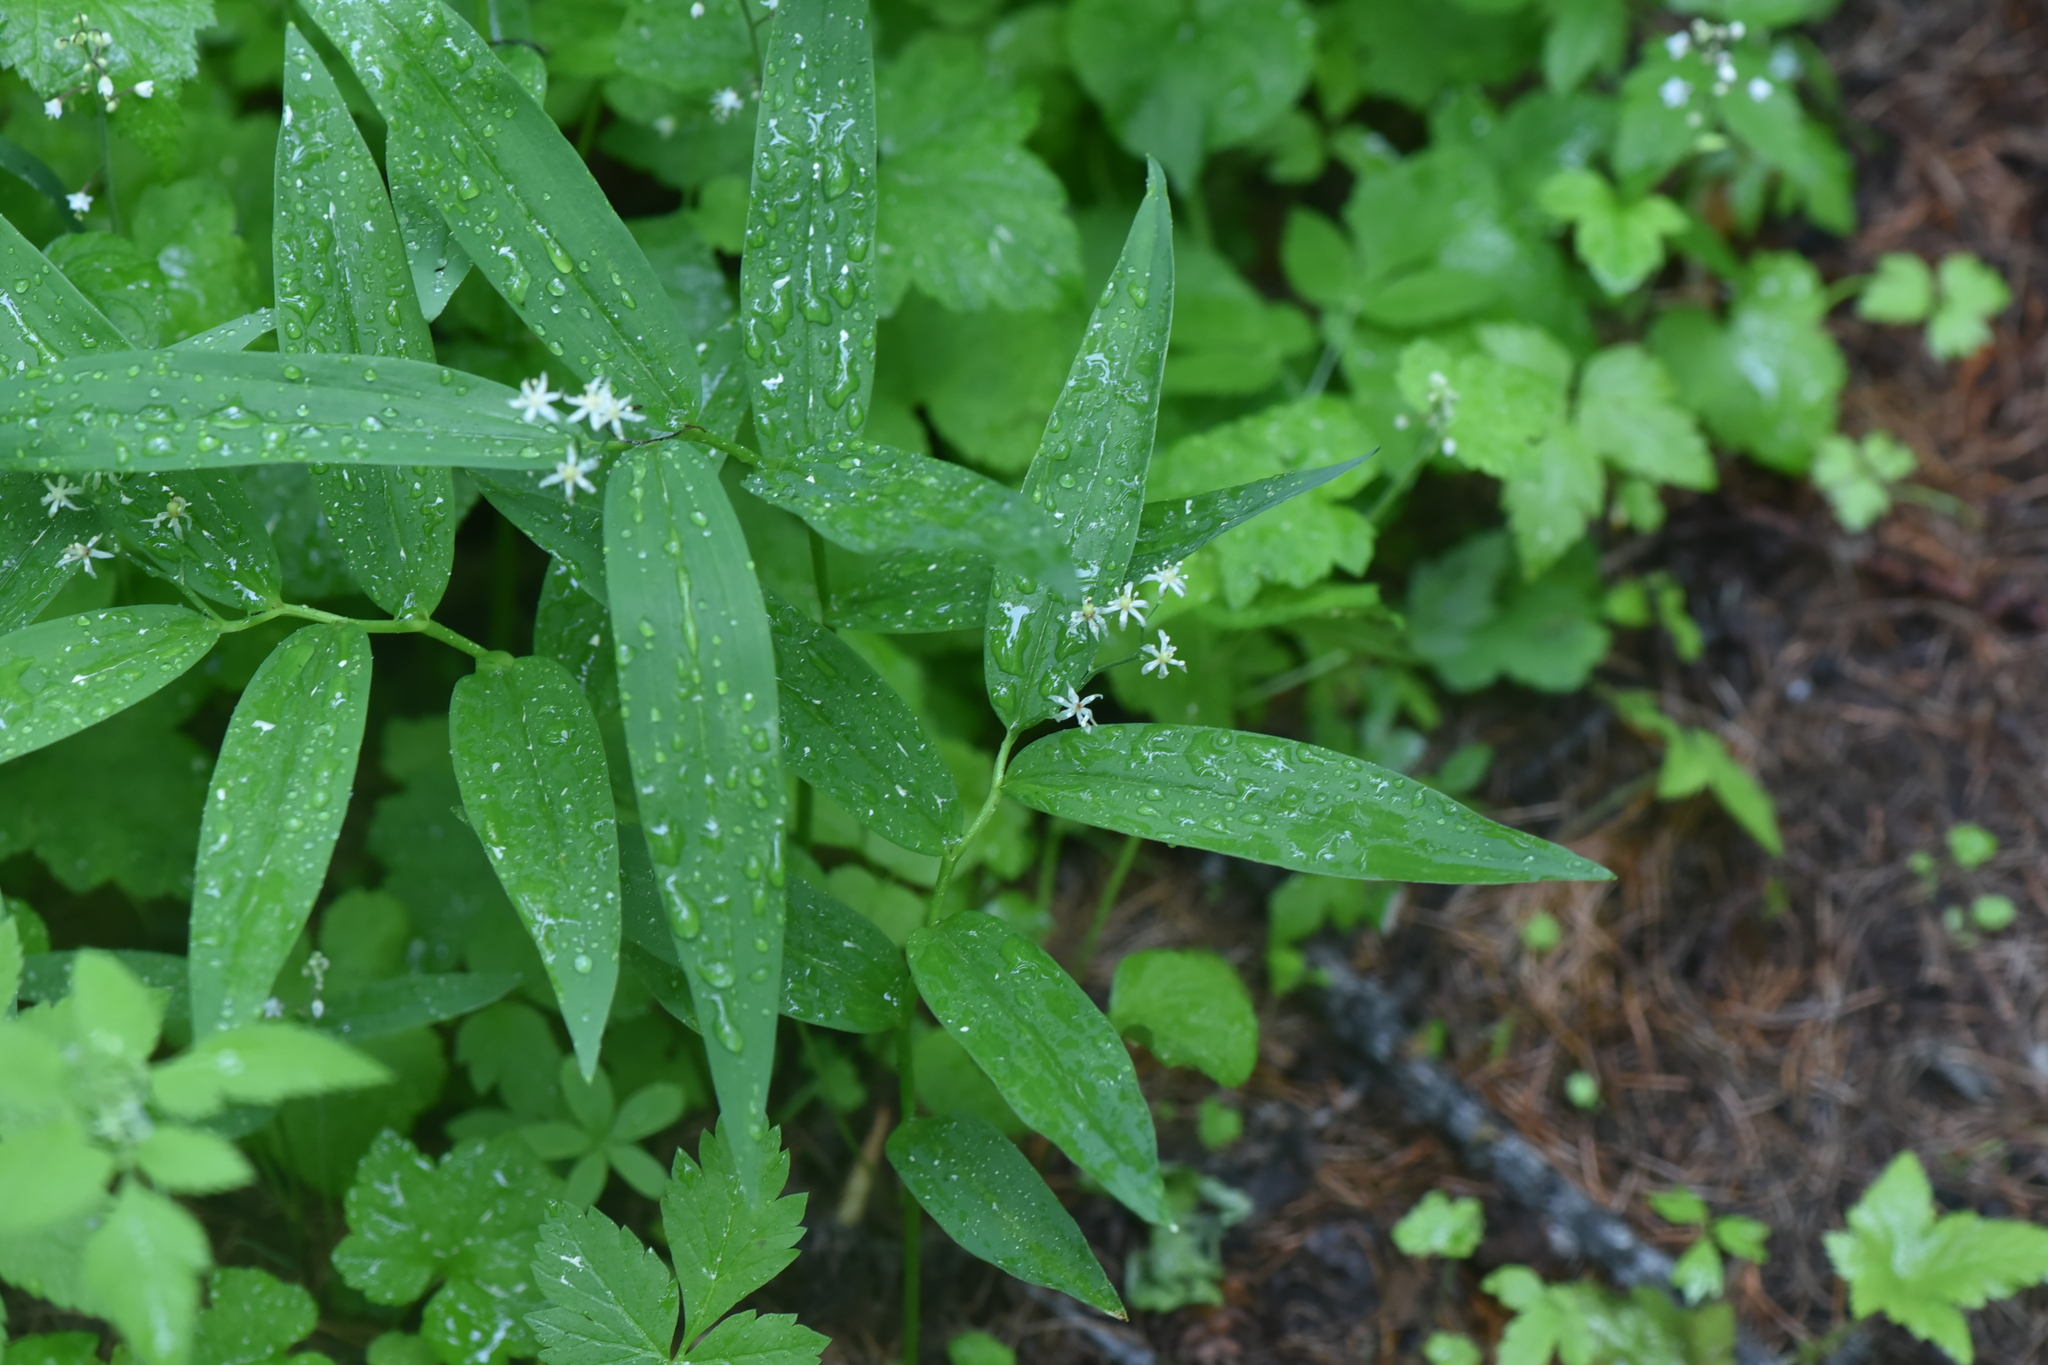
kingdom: Plantae
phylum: Tracheophyta
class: Liliopsida
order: Asparagales
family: Asparagaceae
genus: Maianthemum
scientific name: Maianthemum stellatum
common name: Little false solomon's seal
